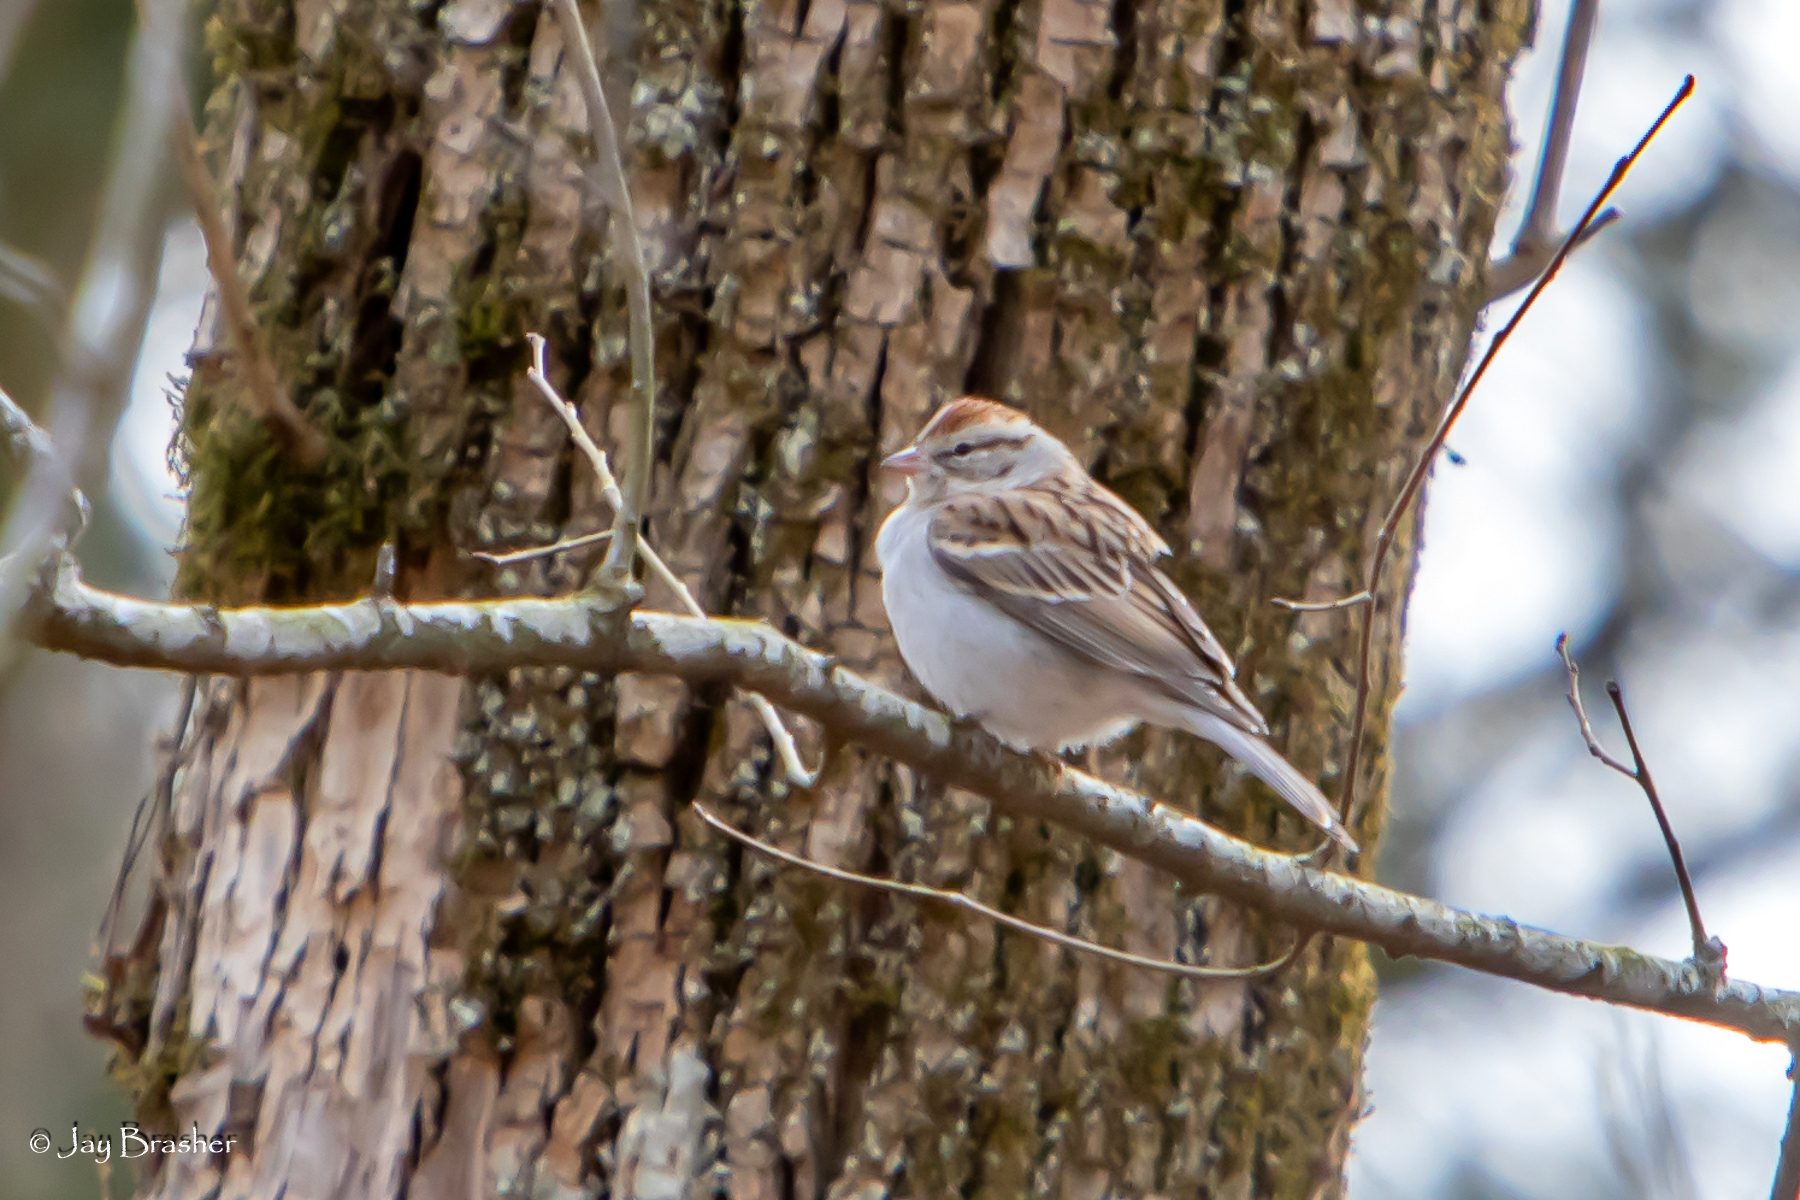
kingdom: Animalia
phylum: Chordata
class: Aves
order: Passeriformes
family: Passerellidae
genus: Spizella
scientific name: Spizella passerina
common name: Chipping sparrow
